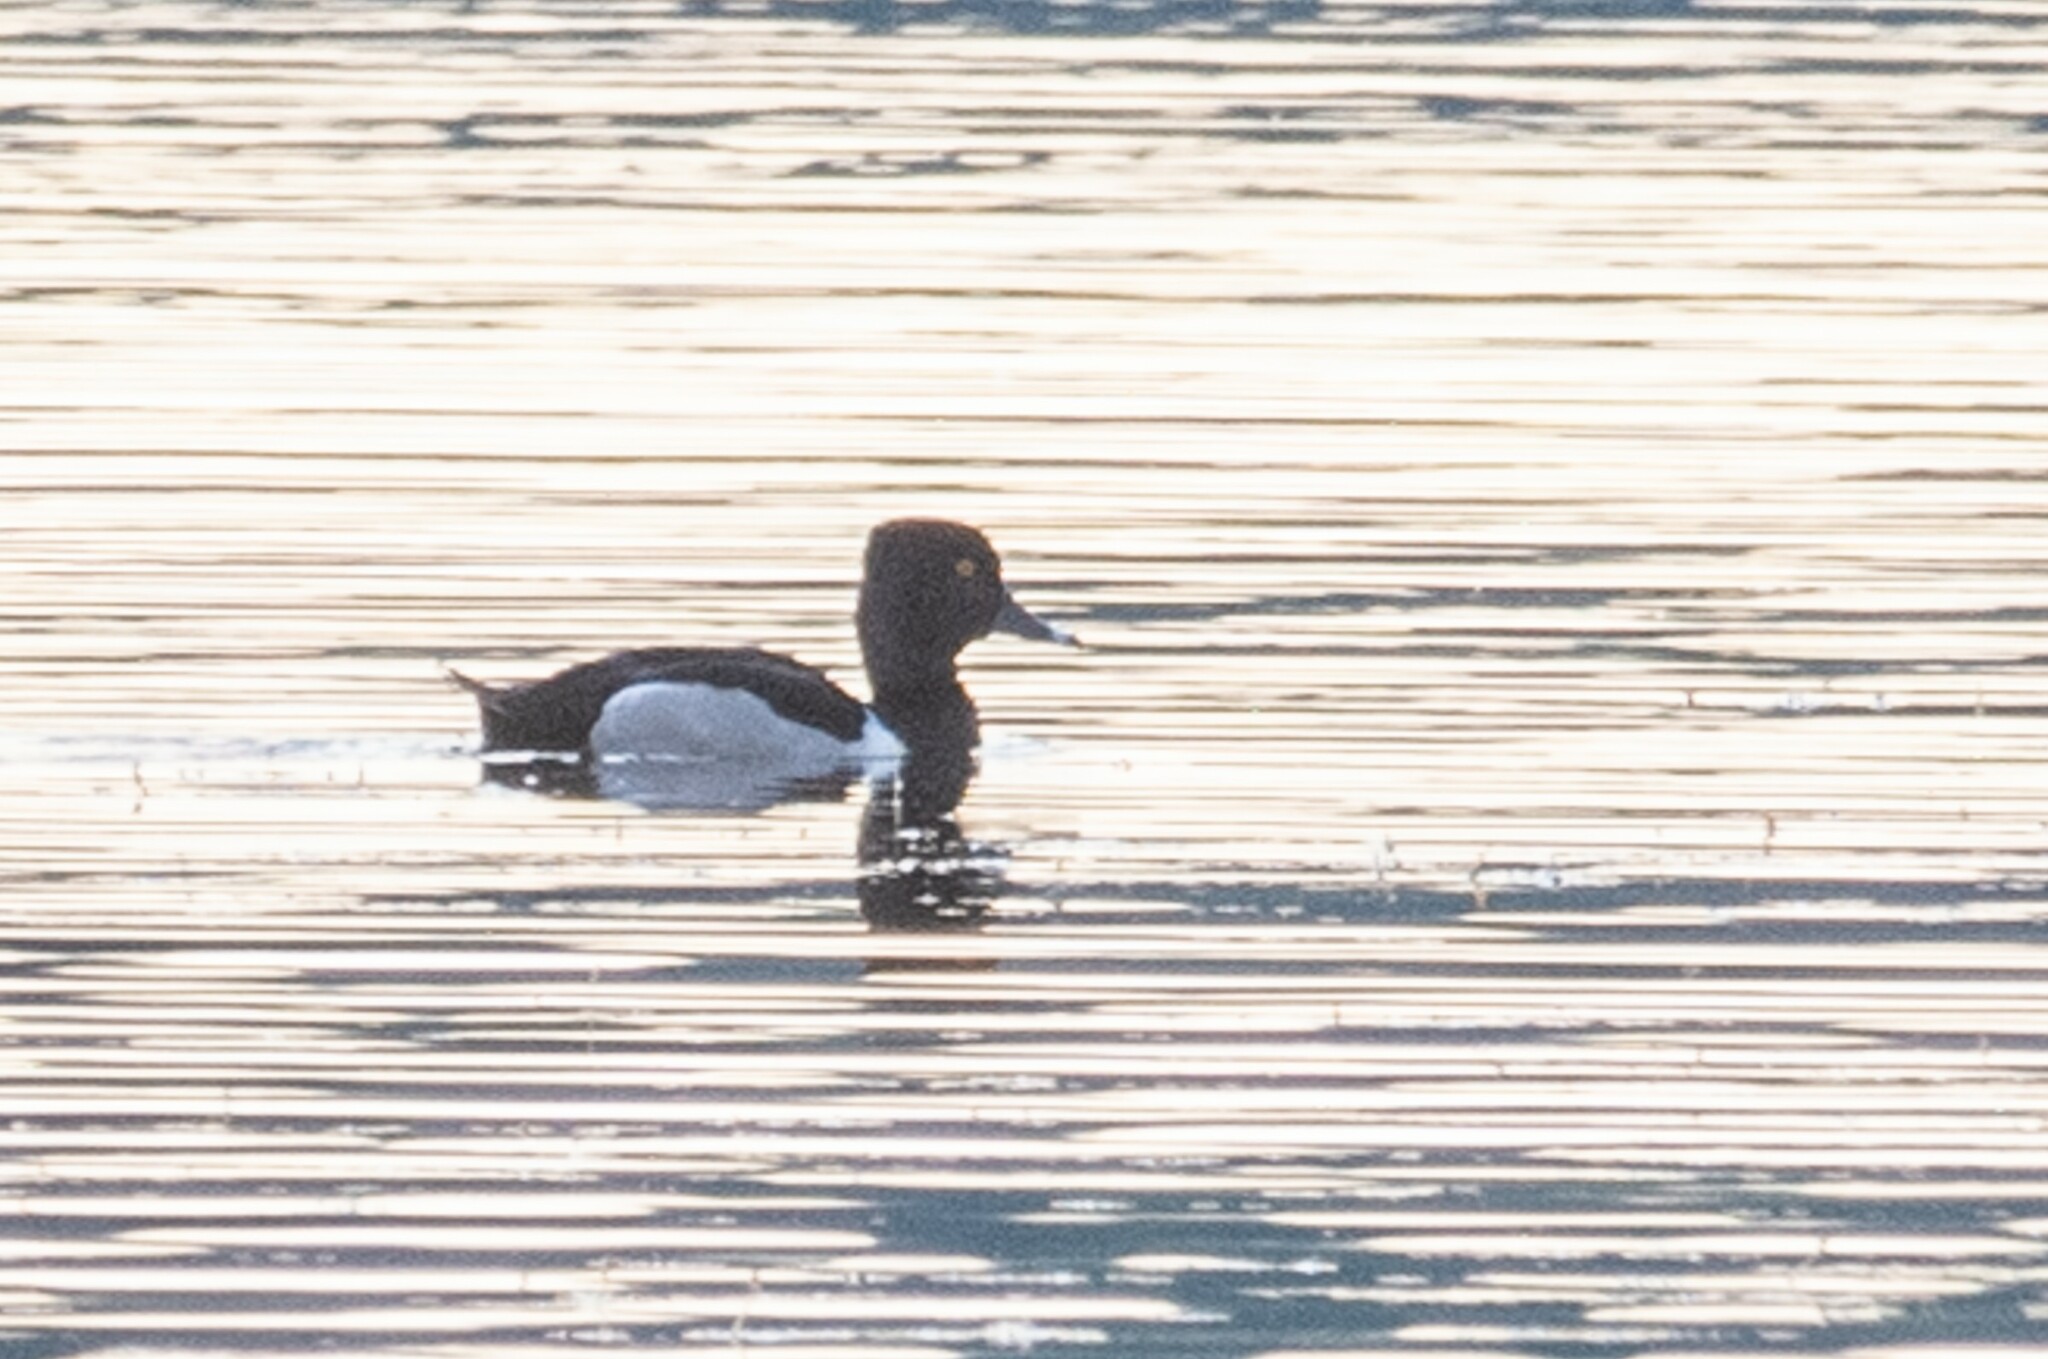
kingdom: Animalia
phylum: Chordata
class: Aves
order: Anseriformes
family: Anatidae
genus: Aythya
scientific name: Aythya collaris
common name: Ring-necked duck
